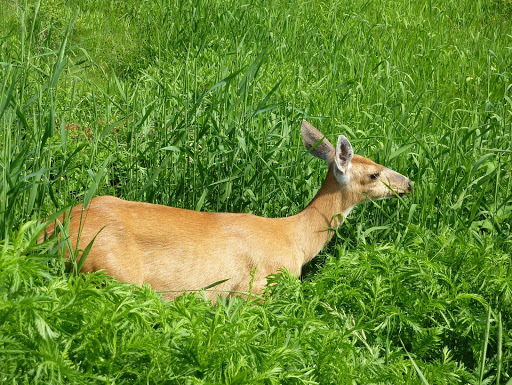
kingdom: Animalia
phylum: Chordata
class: Mammalia
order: Artiodactyla
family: Cervidae
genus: Odocoileus
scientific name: Odocoileus hemionus
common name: Mule deer
